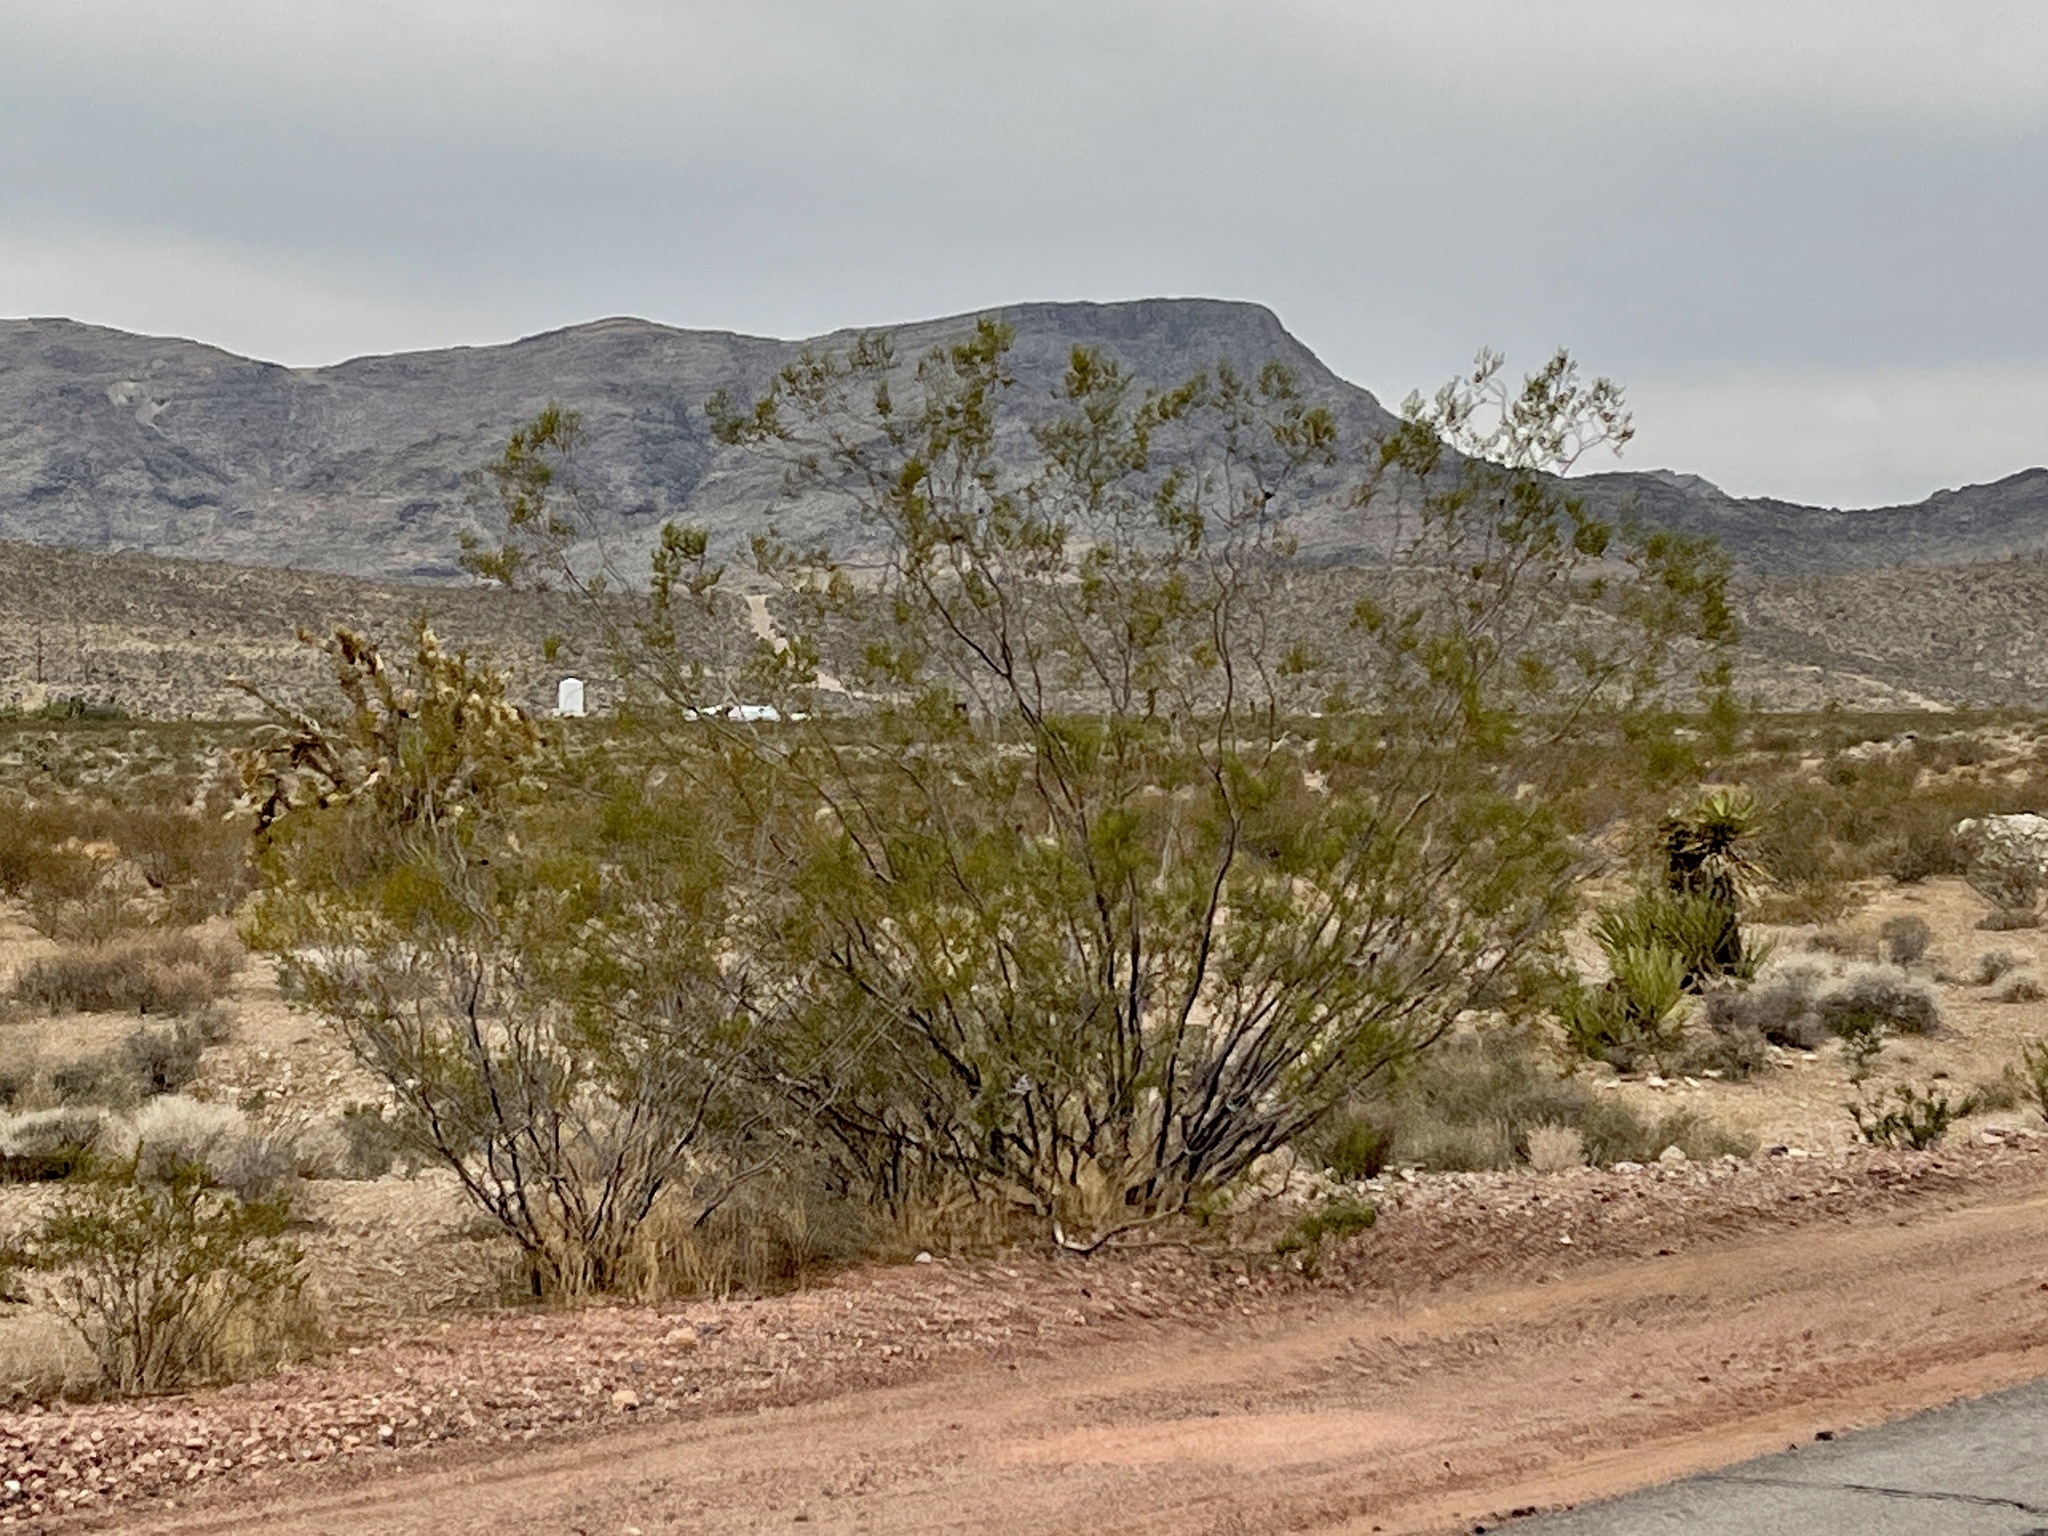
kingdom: Plantae
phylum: Tracheophyta
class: Magnoliopsida
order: Zygophyllales
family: Zygophyllaceae
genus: Larrea
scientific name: Larrea tridentata
